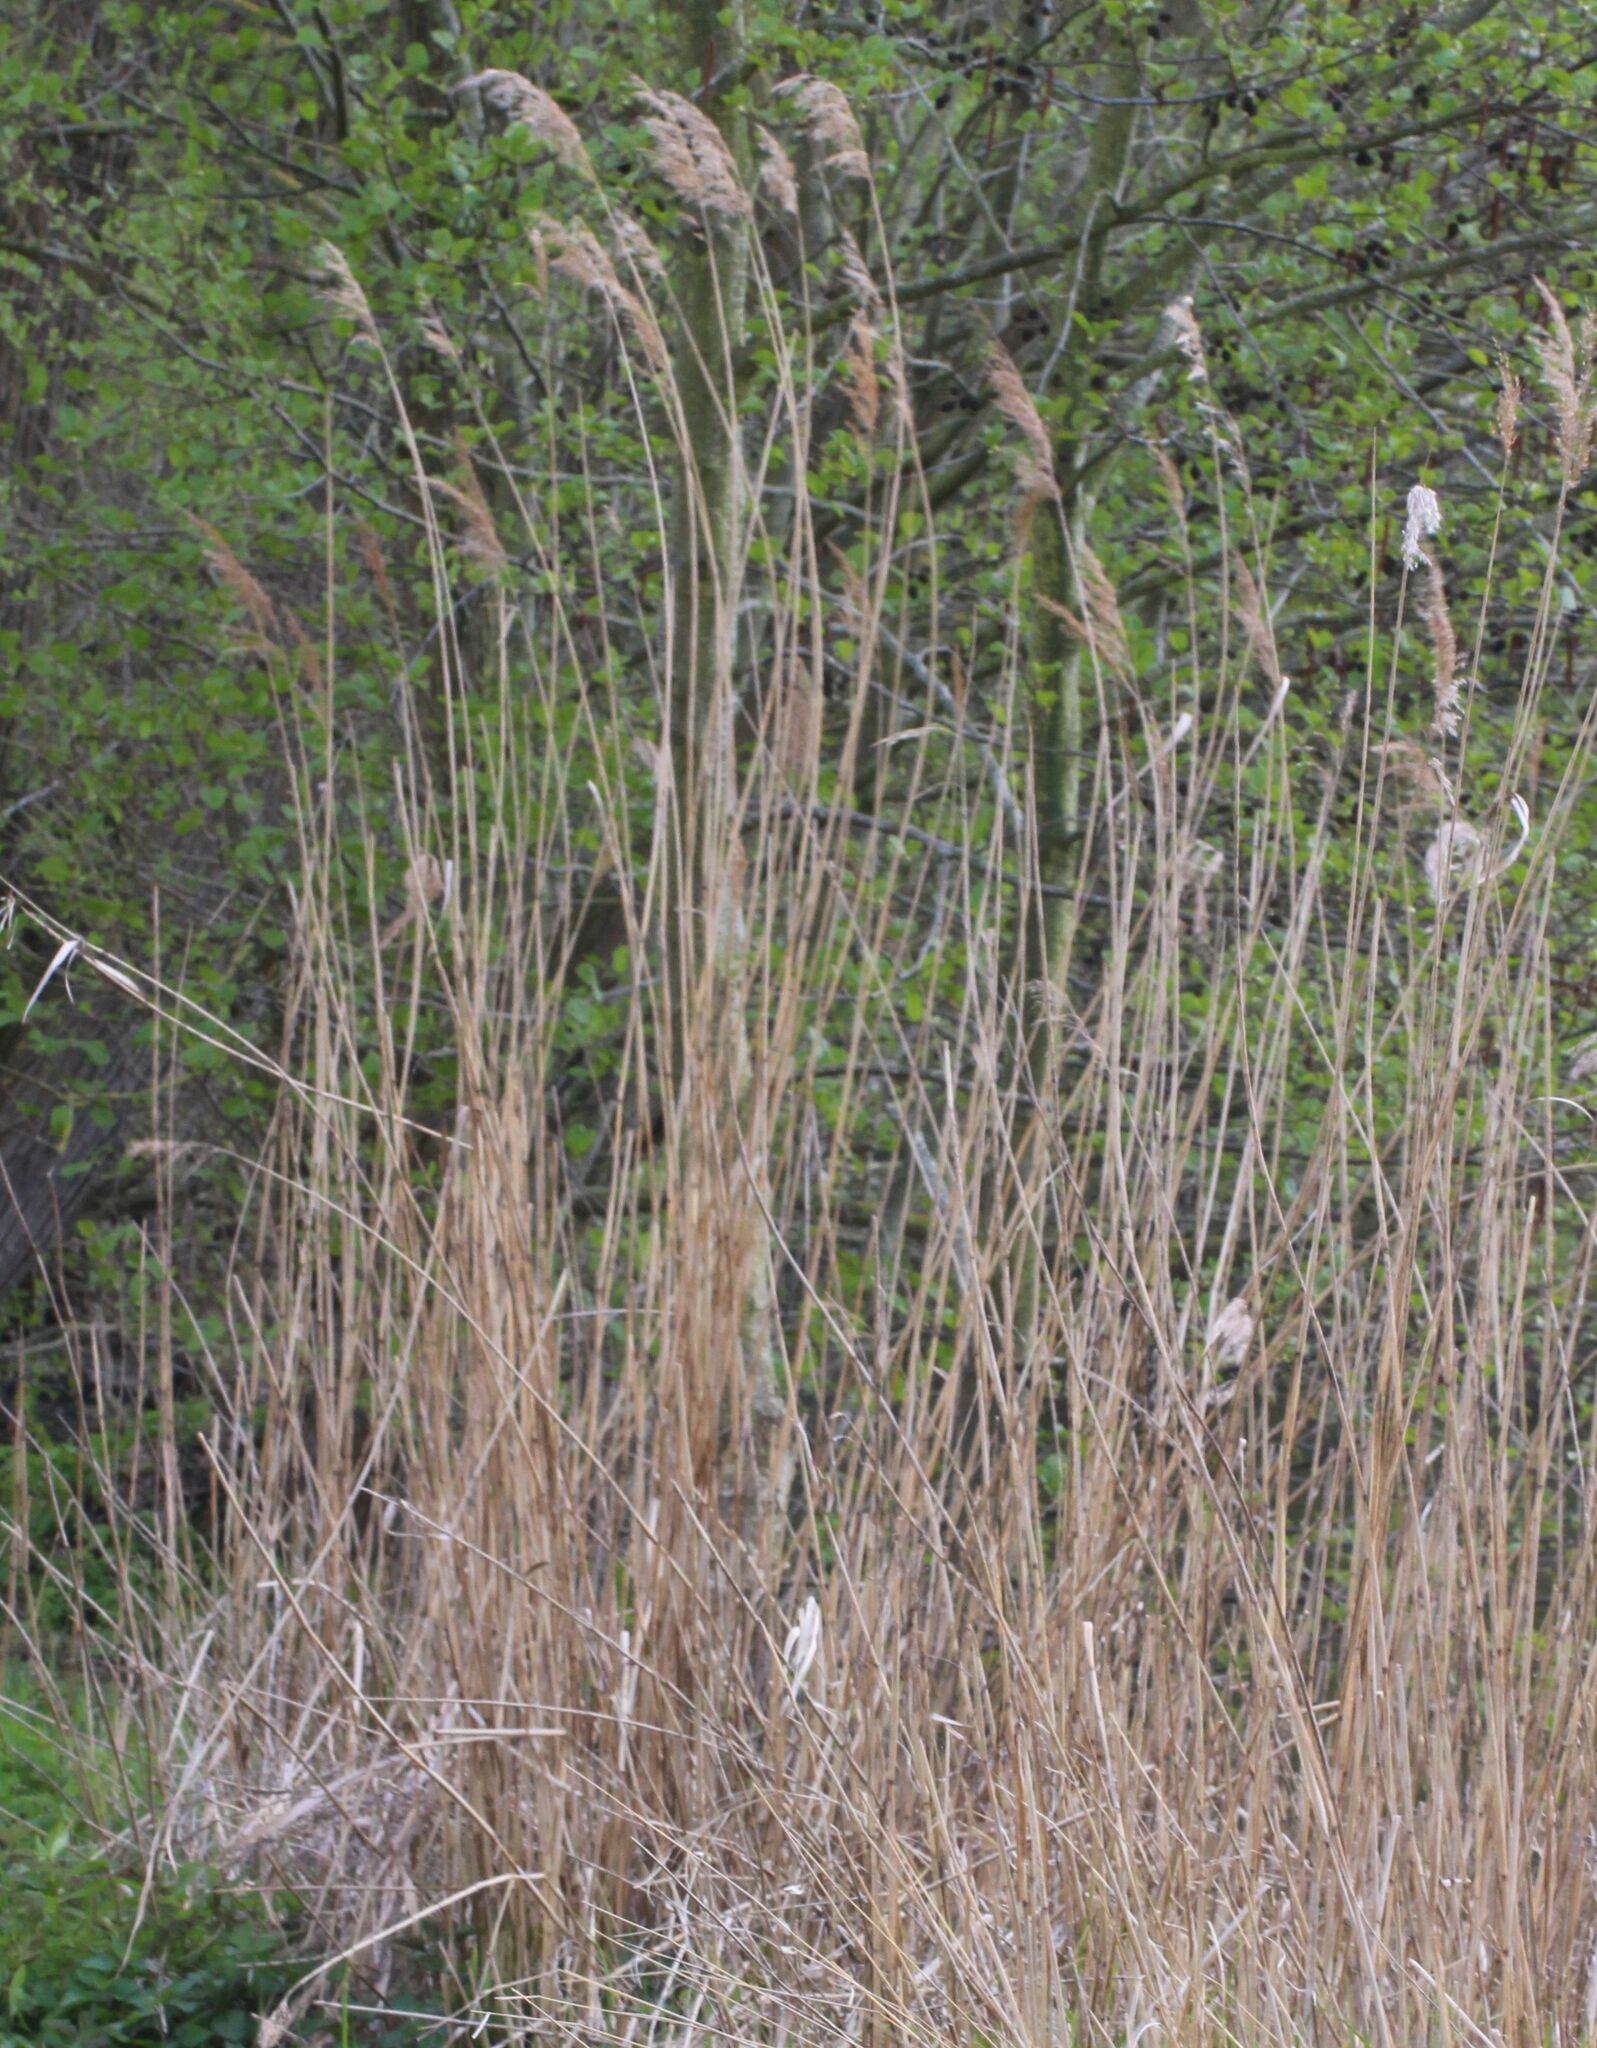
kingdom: Plantae
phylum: Tracheophyta
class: Liliopsida
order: Poales
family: Poaceae
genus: Phragmites
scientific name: Phragmites australis
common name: Common reed
